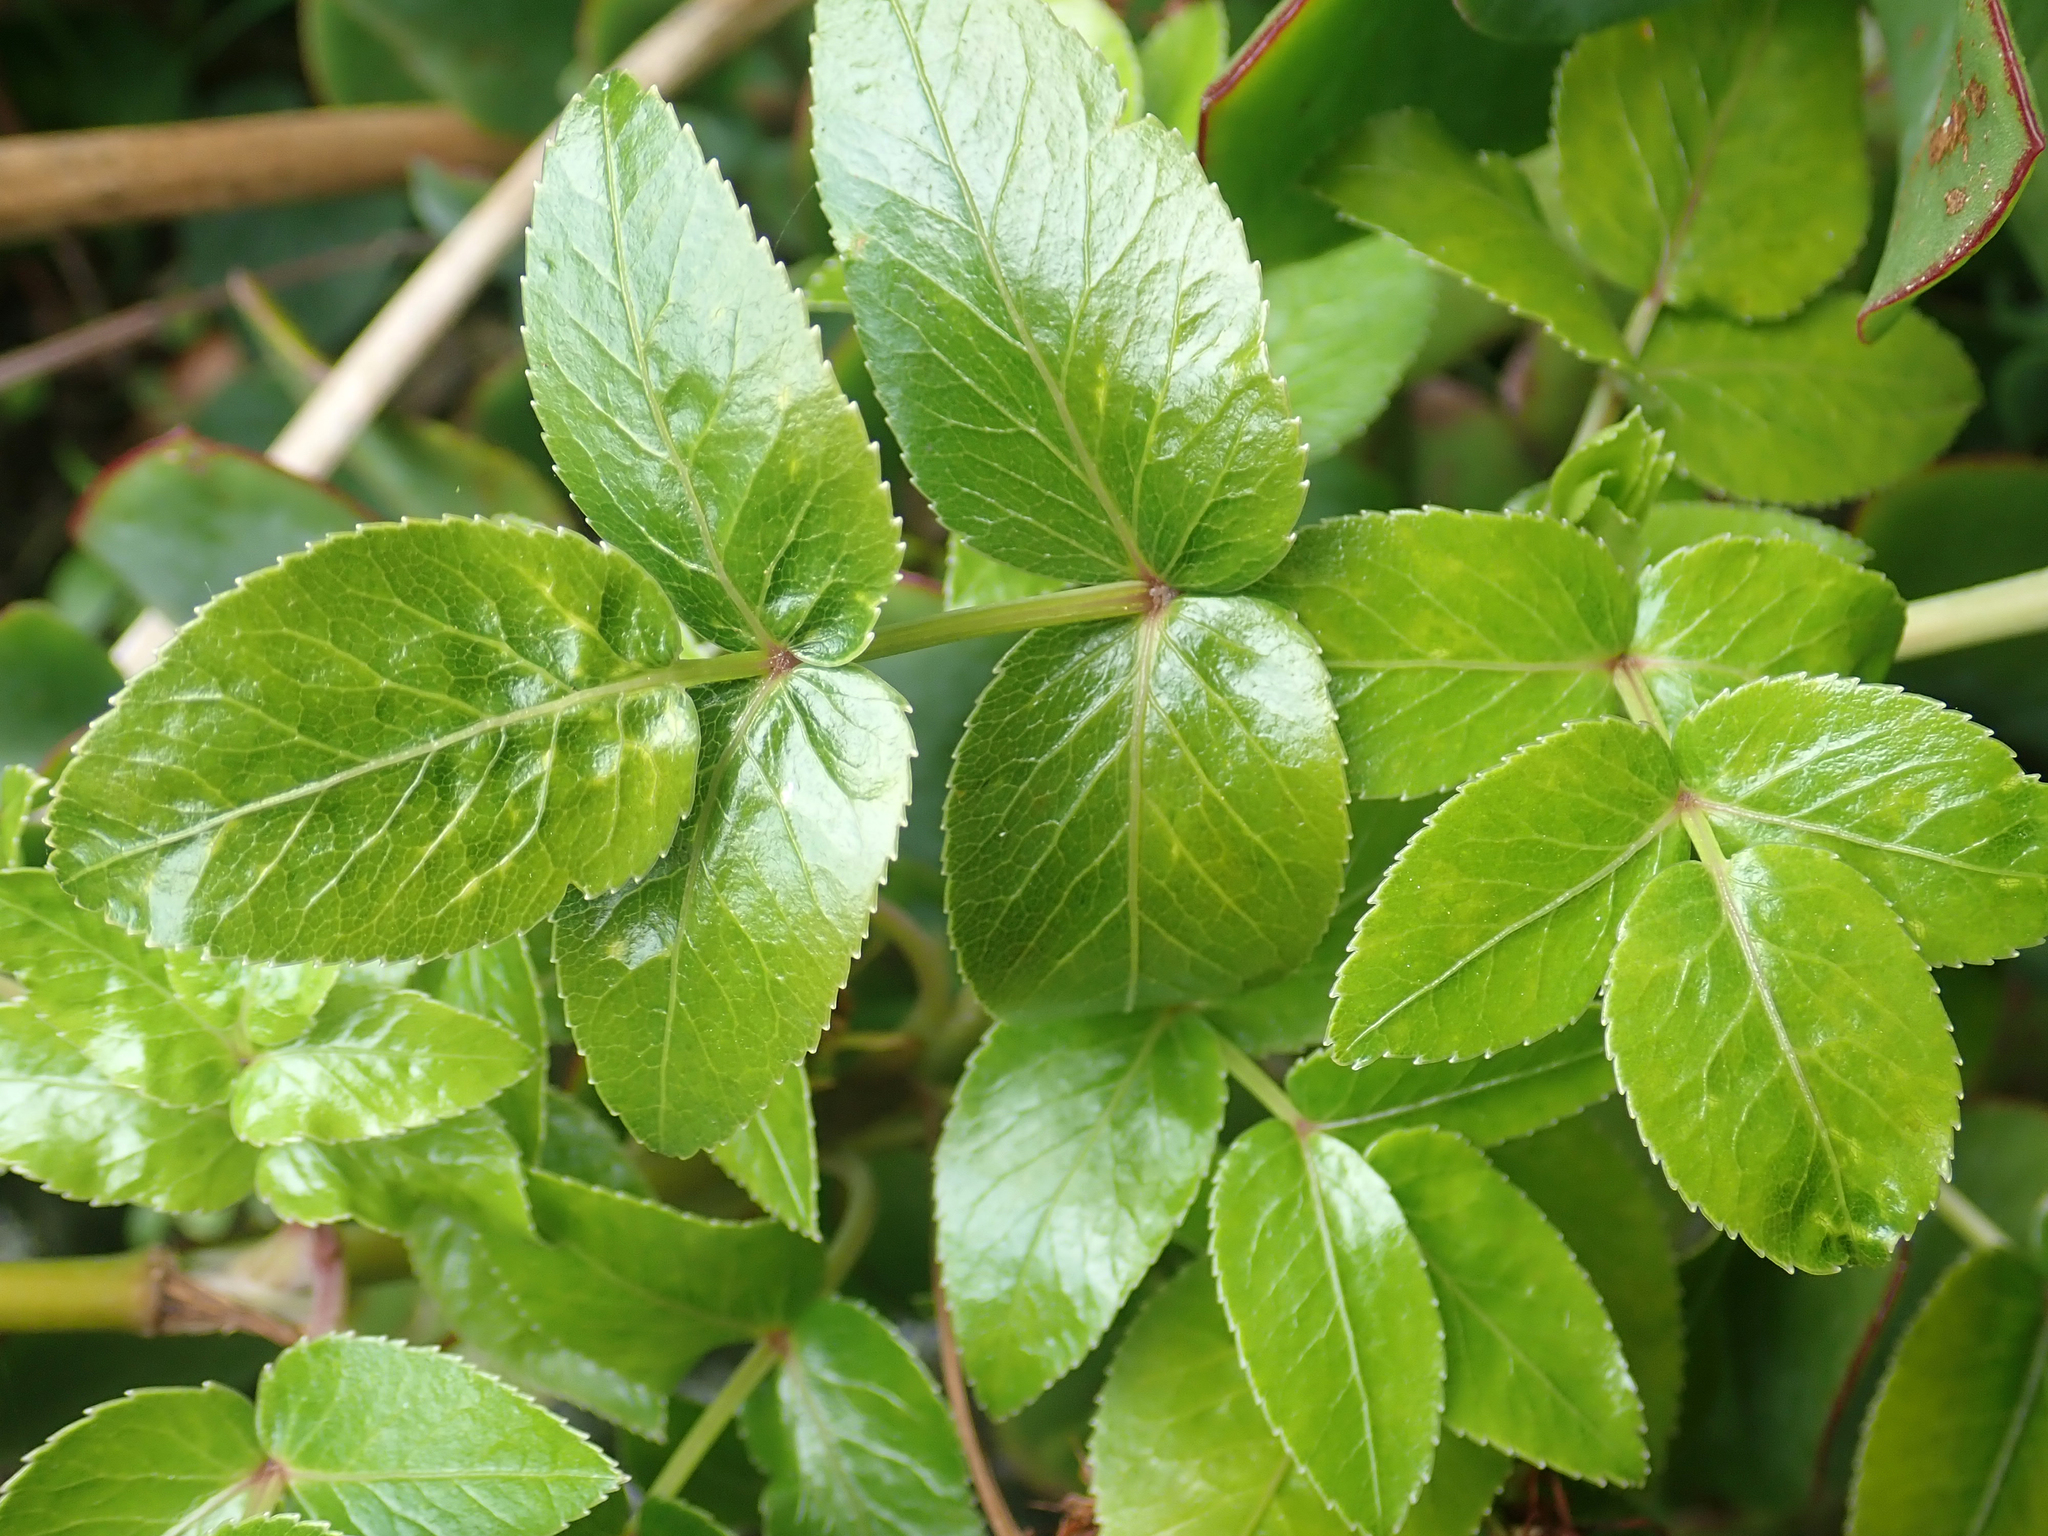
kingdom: Plantae
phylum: Tracheophyta
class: Magnoliopsida
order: Apiales
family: Apiaceae
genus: Scandia
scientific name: Scandia rosifolia
